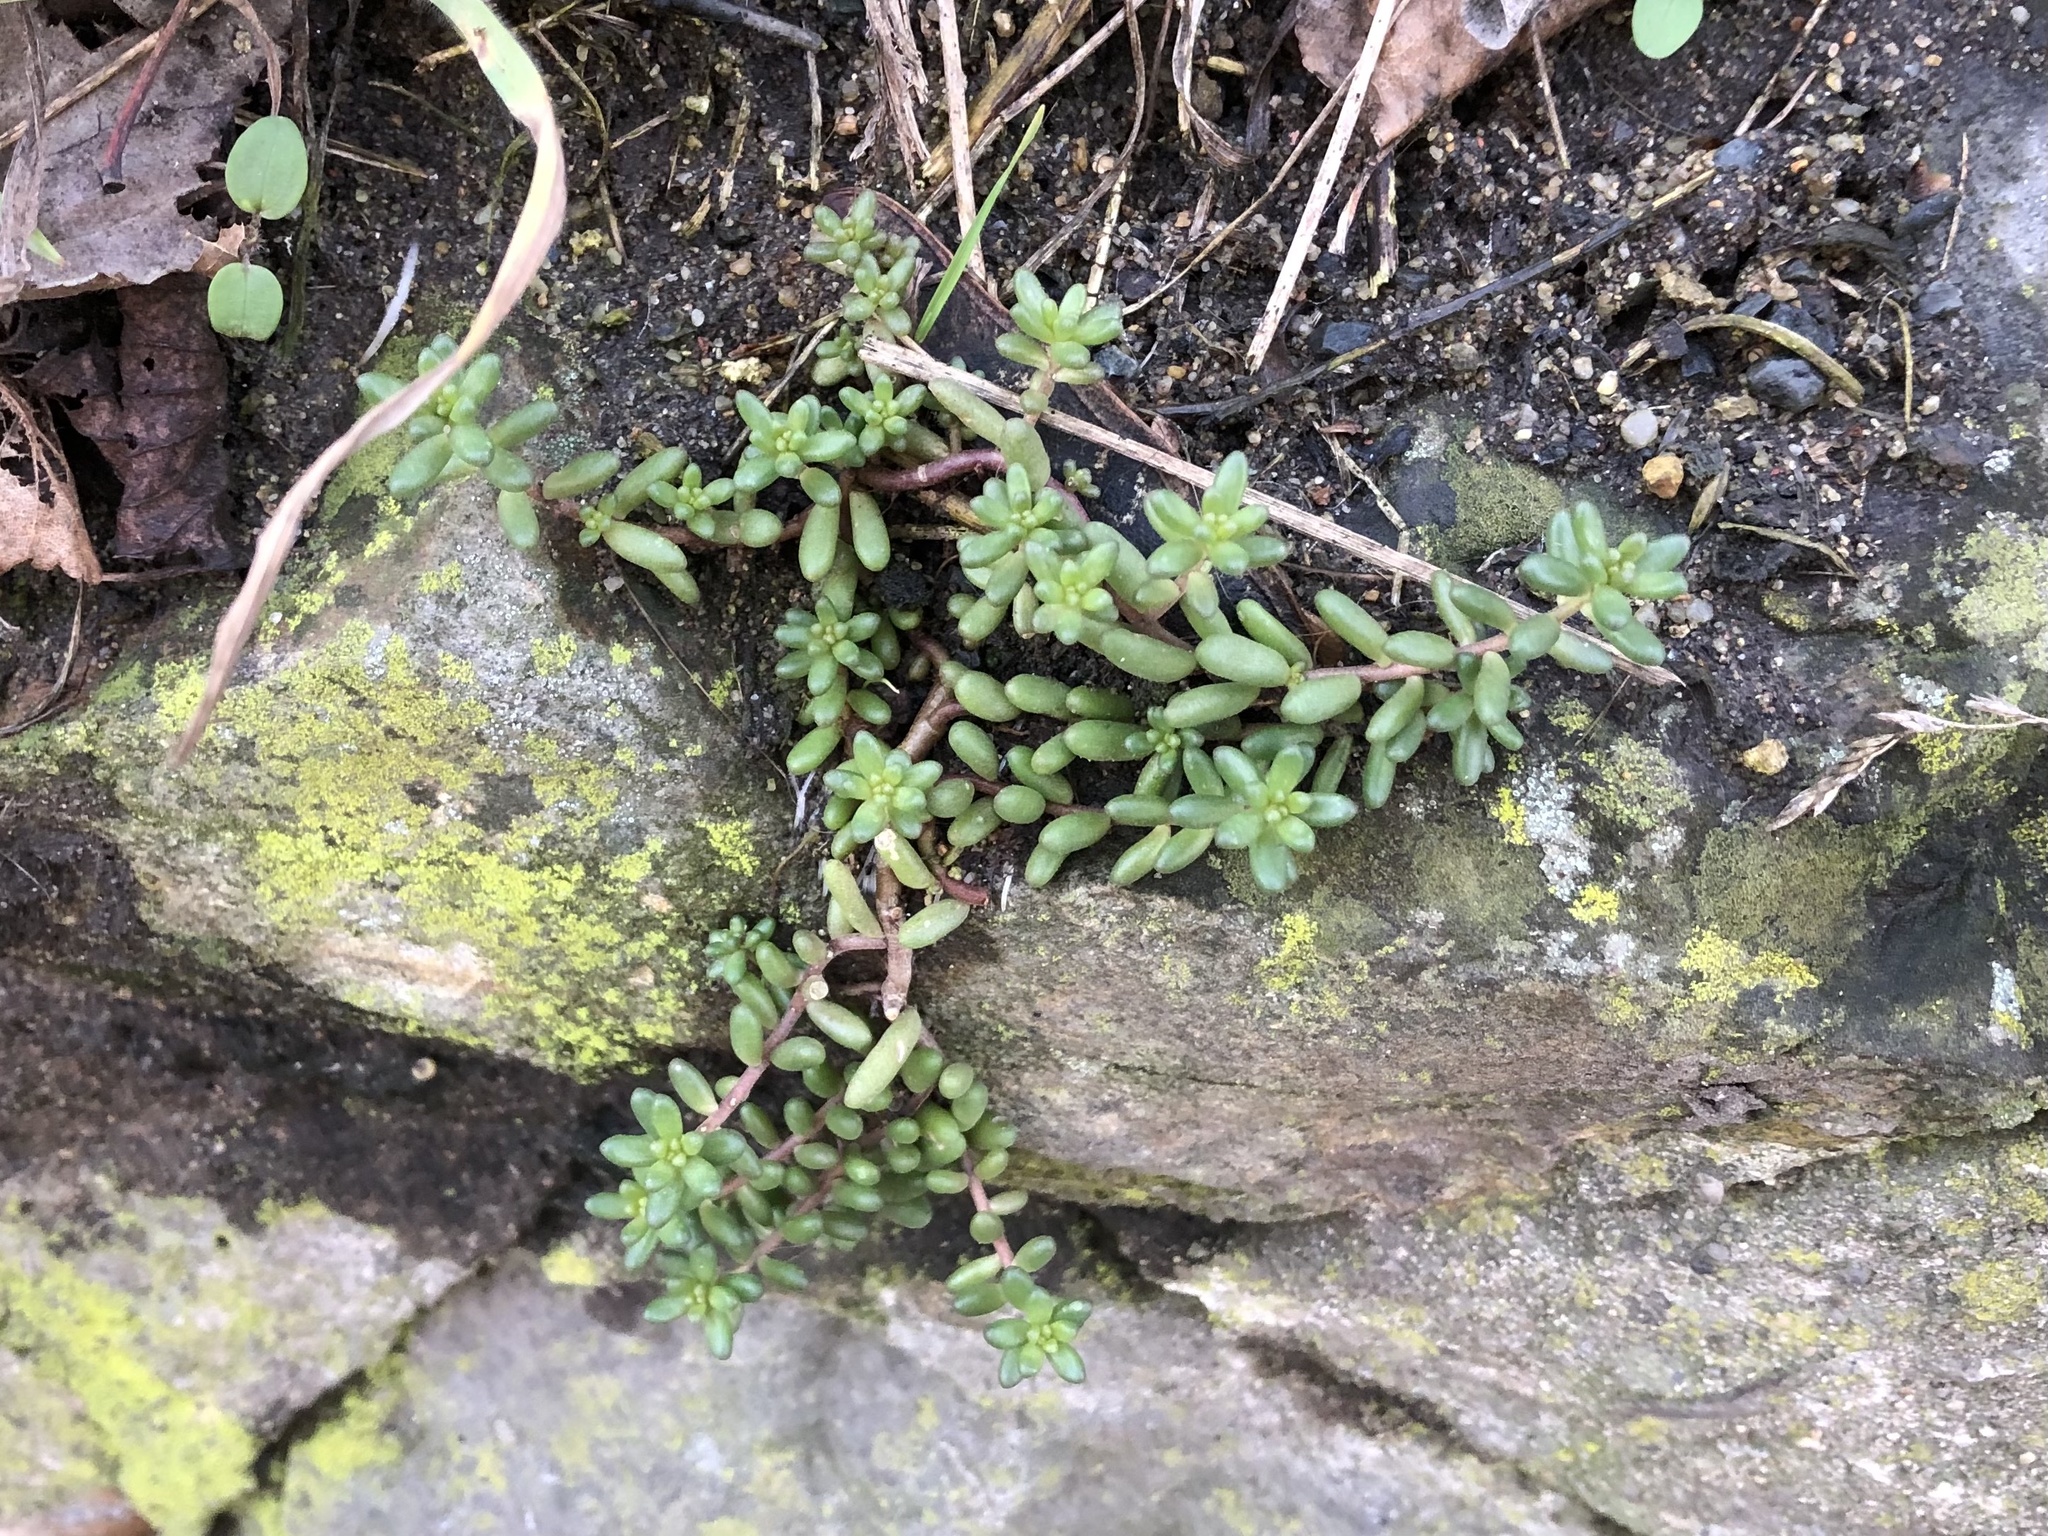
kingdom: Plantae
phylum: Tracheophyta
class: Magnoliopsida
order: Saxifragales
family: Crassulaceae
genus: Sedum
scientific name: Sedum album
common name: White stonecrop
